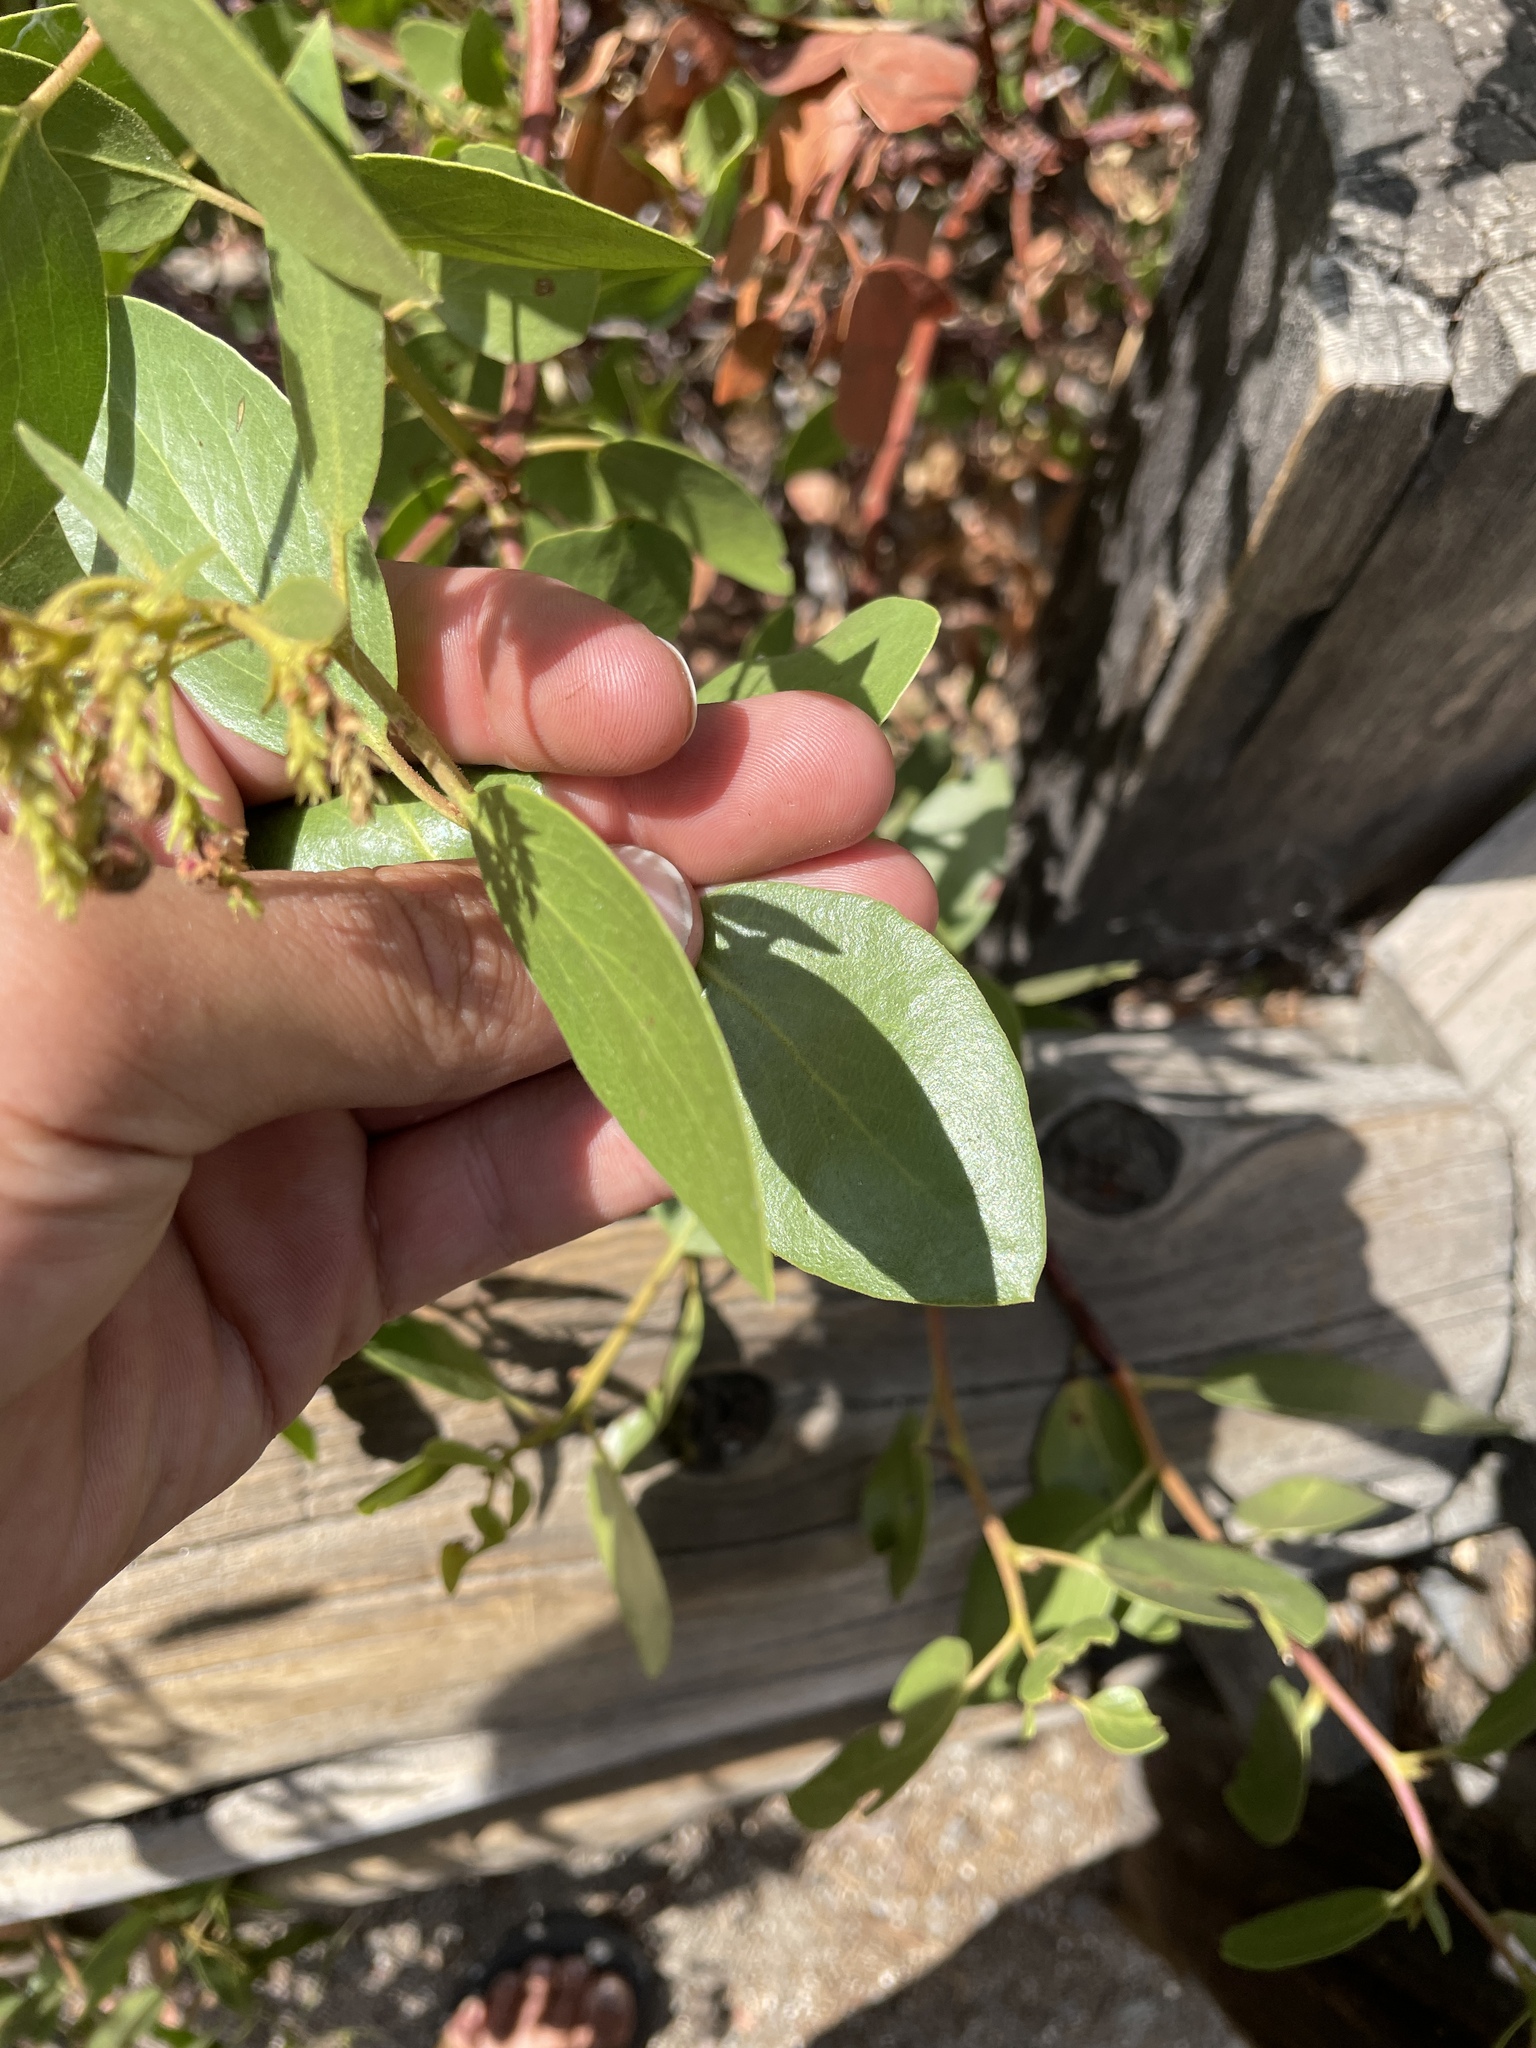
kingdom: Plantae
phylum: Tracheophyta
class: Magnoliopsida
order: Ericales
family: Ericaceae
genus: Arctostaphylos
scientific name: Arctostaphylos patula
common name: Green-leaf manzanita
